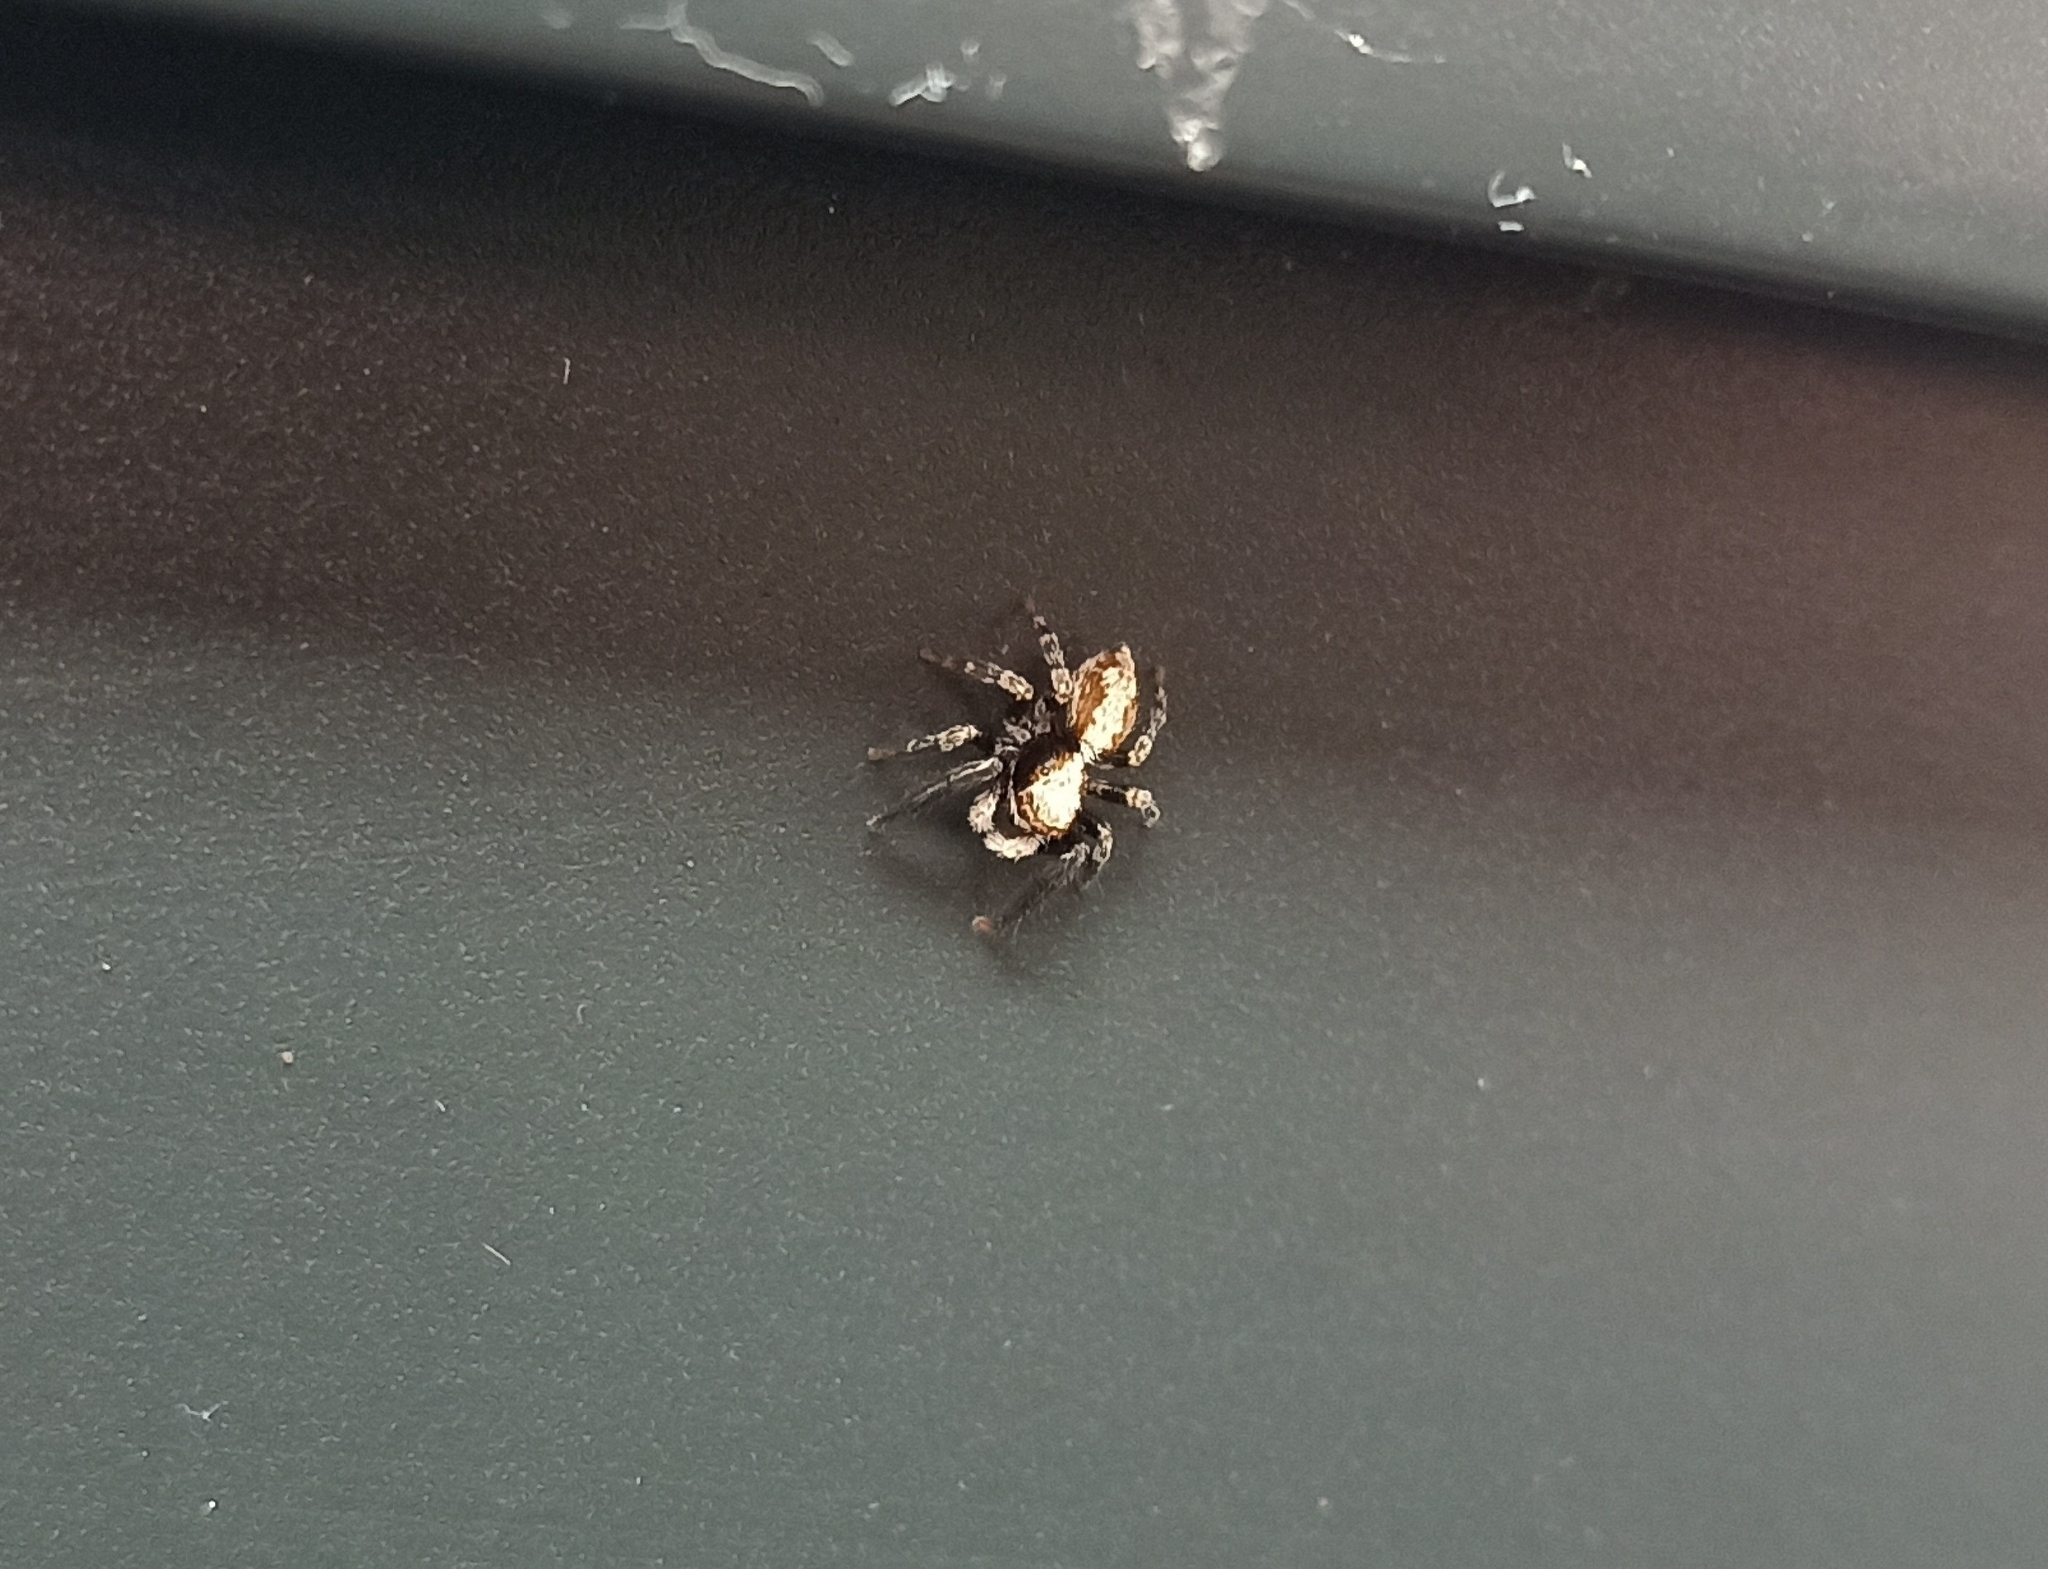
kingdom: Animalia
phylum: Arthropoda
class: Arachnida
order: Araneae
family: Salticidae
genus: Pseudeuophrys
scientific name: Pseudeuophrys lanigera
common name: Jumping spider
